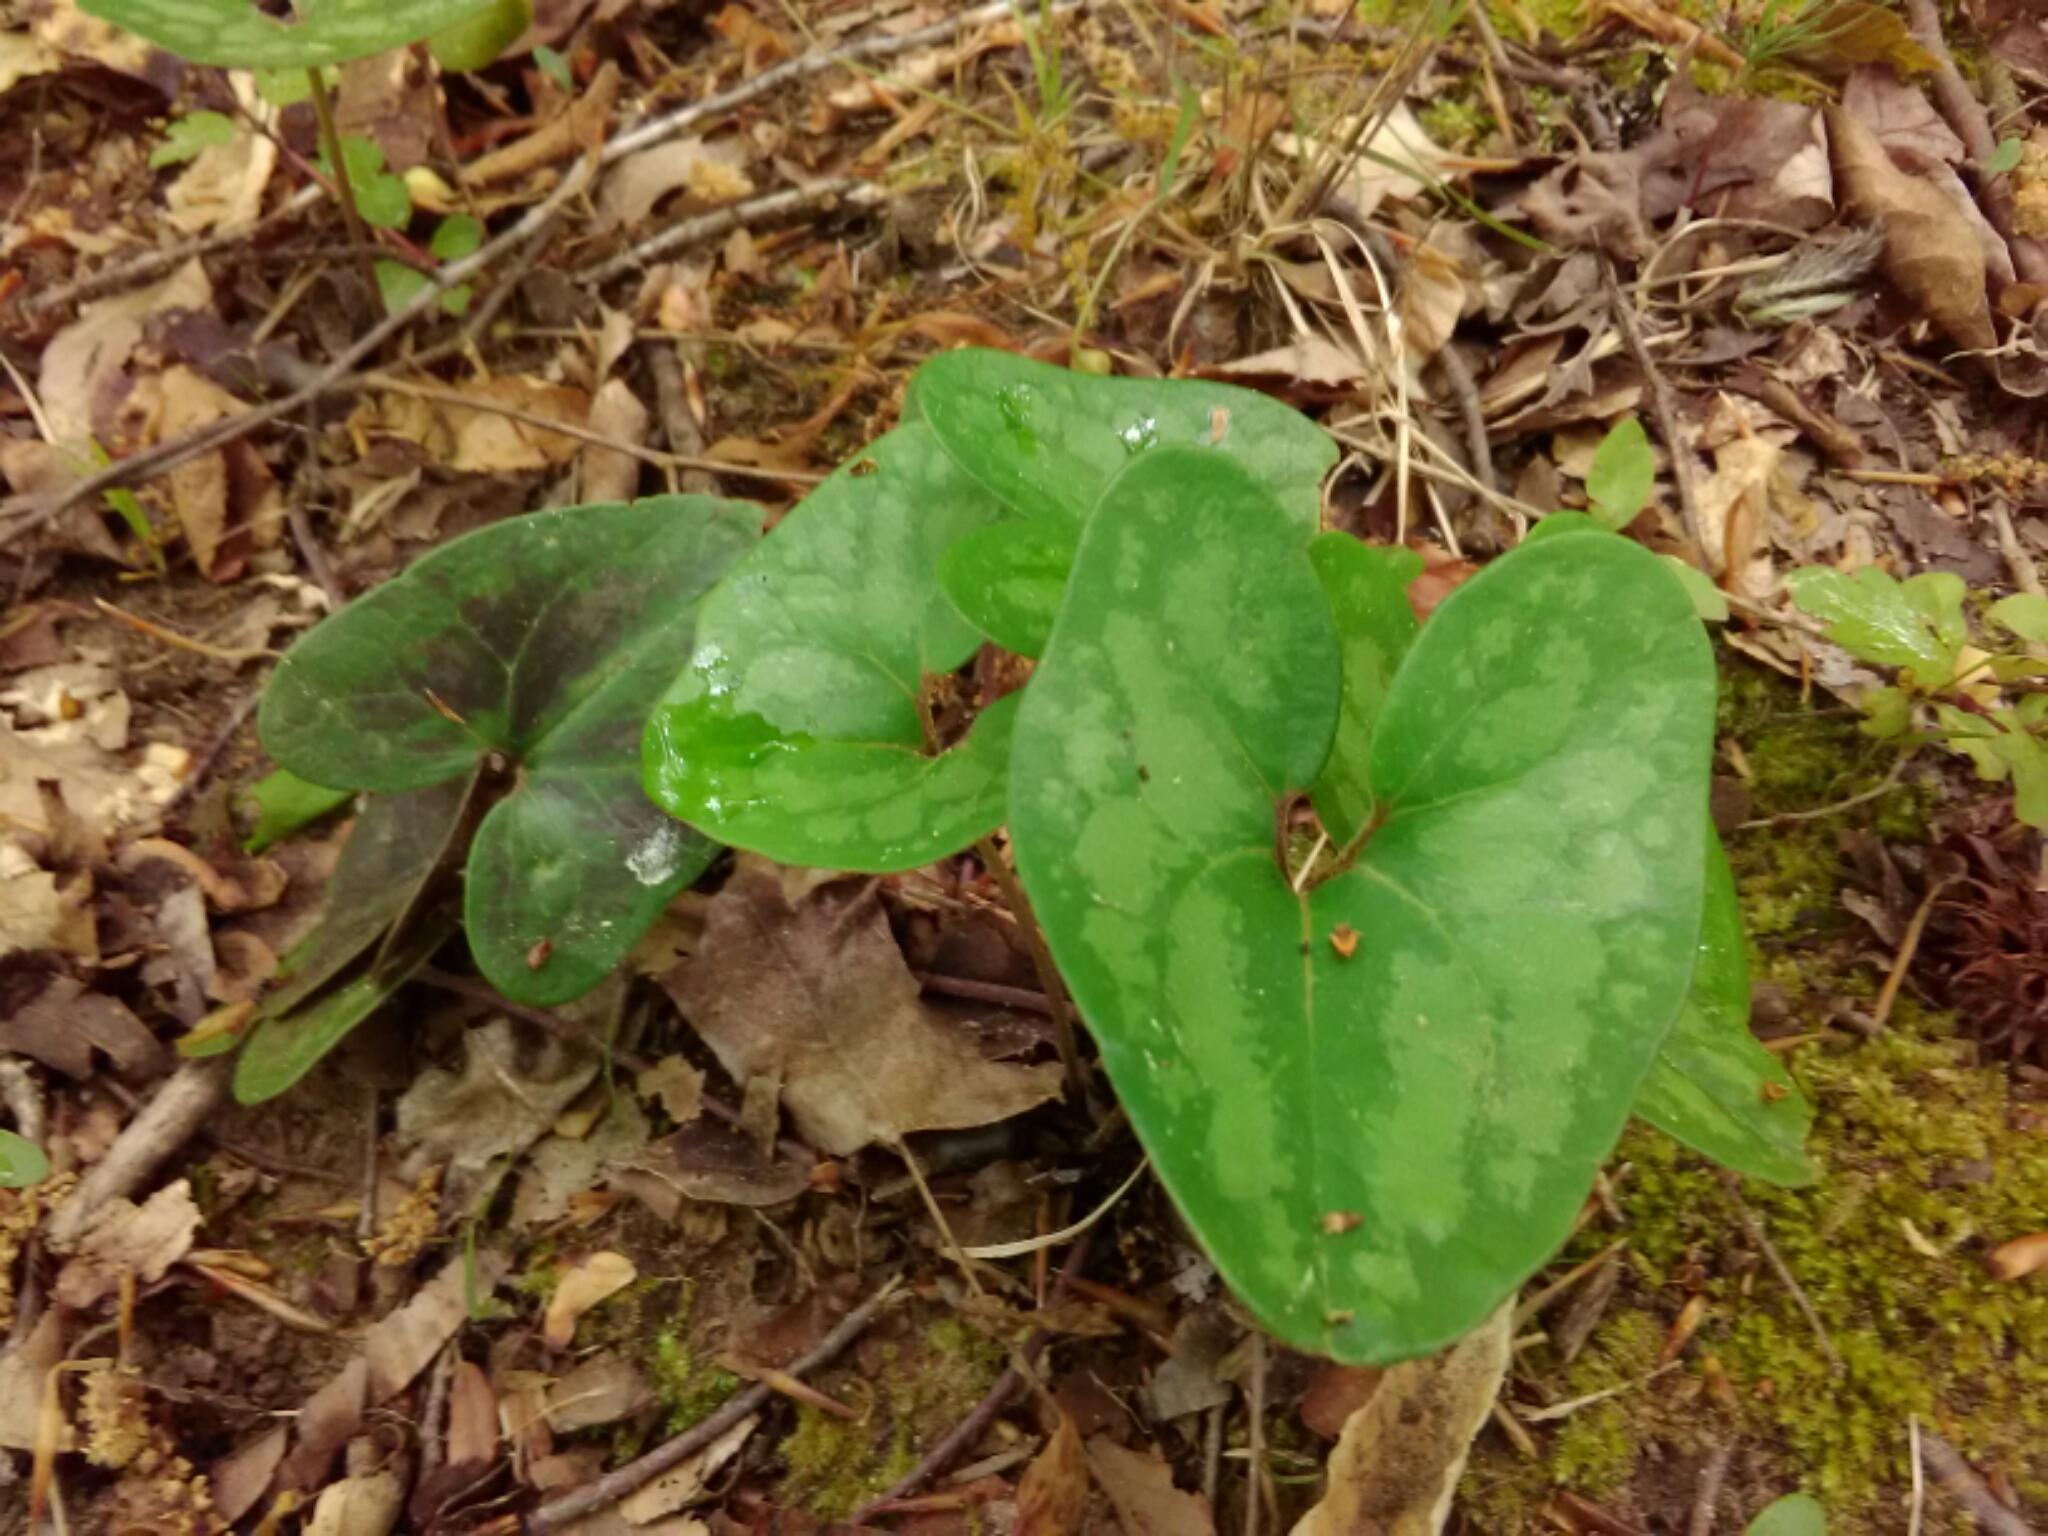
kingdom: Plantae
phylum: Tracheophyta
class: Magnoliopsida
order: Piperales
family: Aristolochiaceae
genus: Hexastylis
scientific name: Hexastylis arifolia
